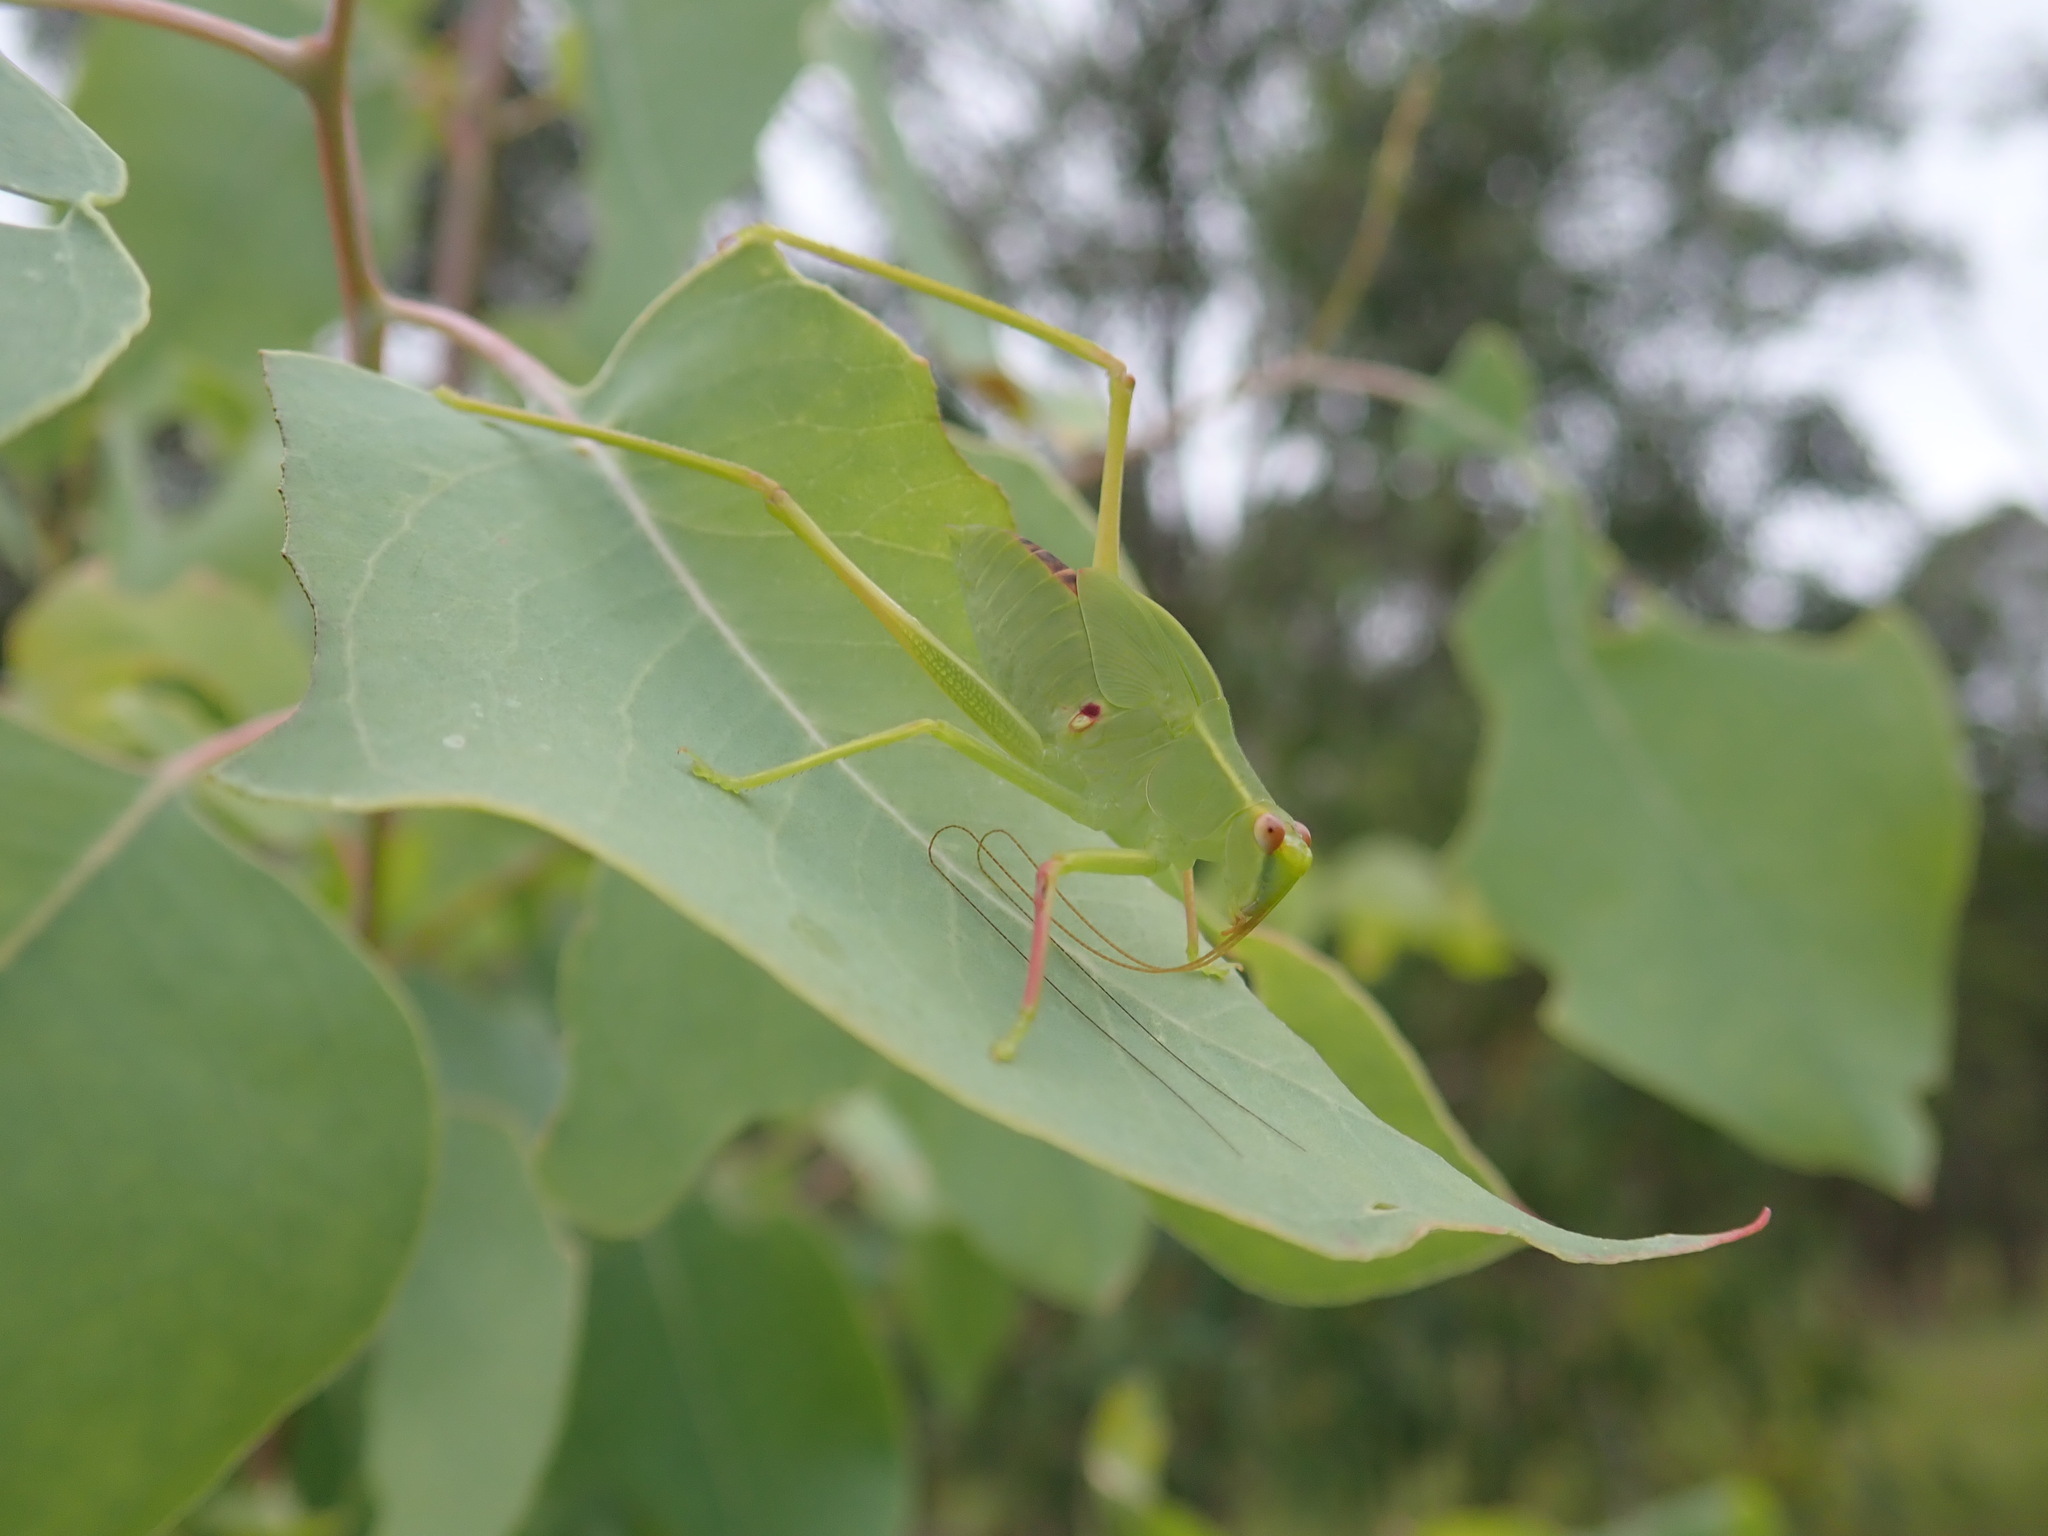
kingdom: Animalia
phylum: Arthropoda
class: Insecta
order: Orthoptera
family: Tettigoniidae
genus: Torbia
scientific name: Torbia viridissima
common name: Non-predaceous gum leaf katydid
